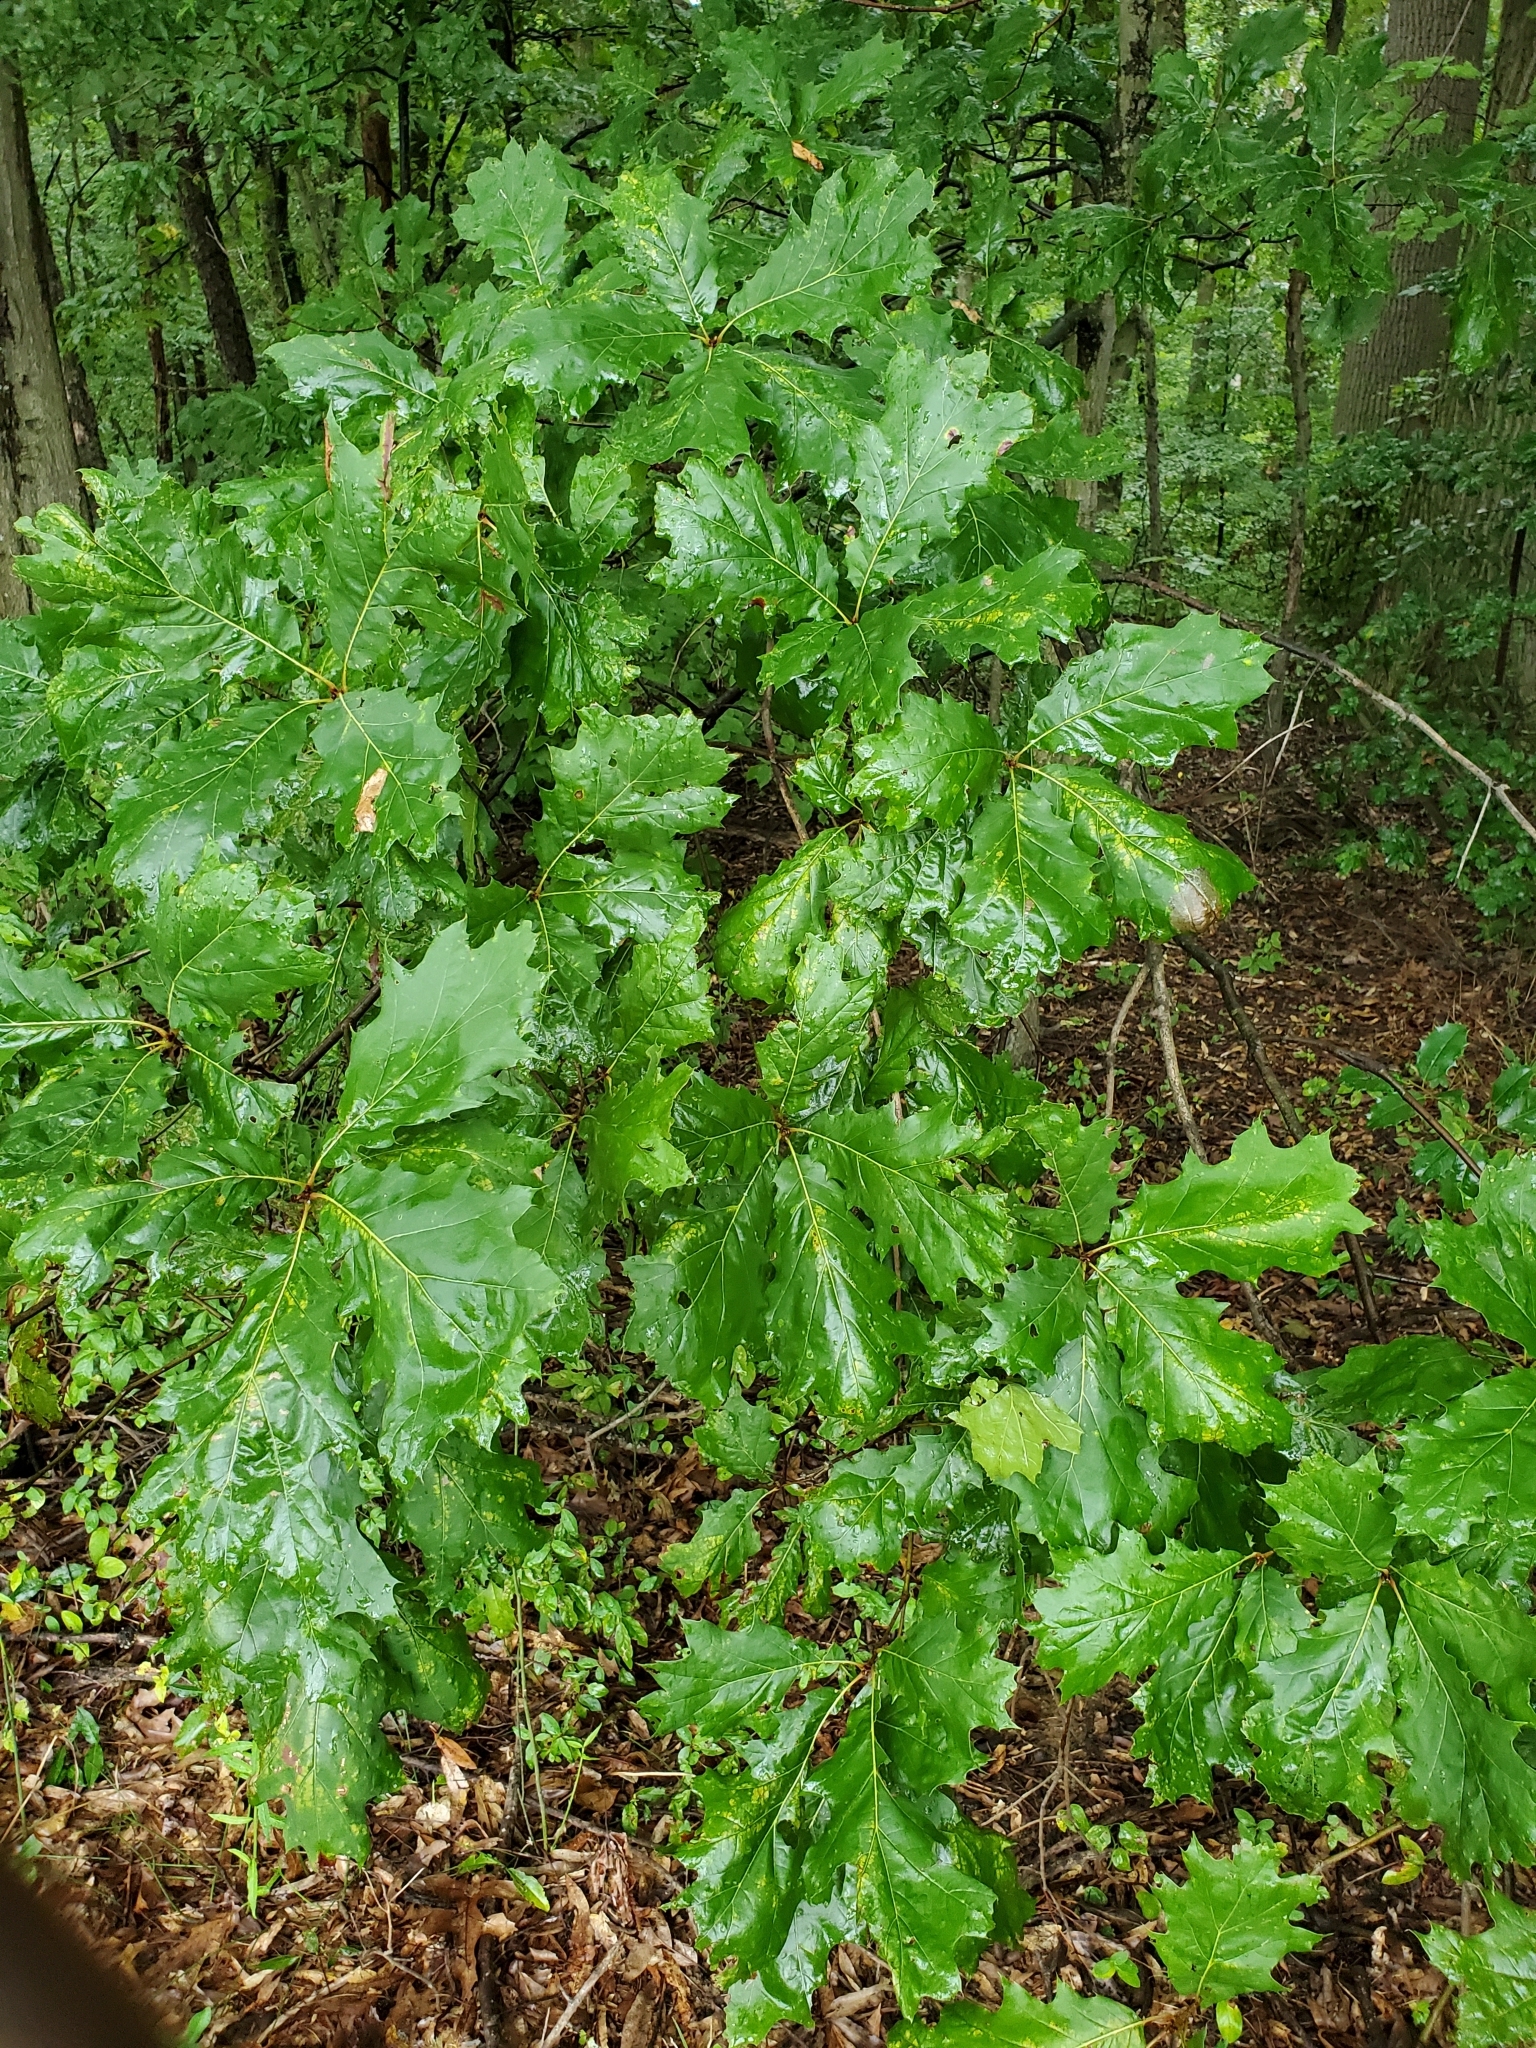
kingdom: Plantae
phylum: Tracheophyta
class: Magnoliopsida
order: Fagales
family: Fagaceae
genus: Quercus
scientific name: Quercus rubra
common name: Red oak
